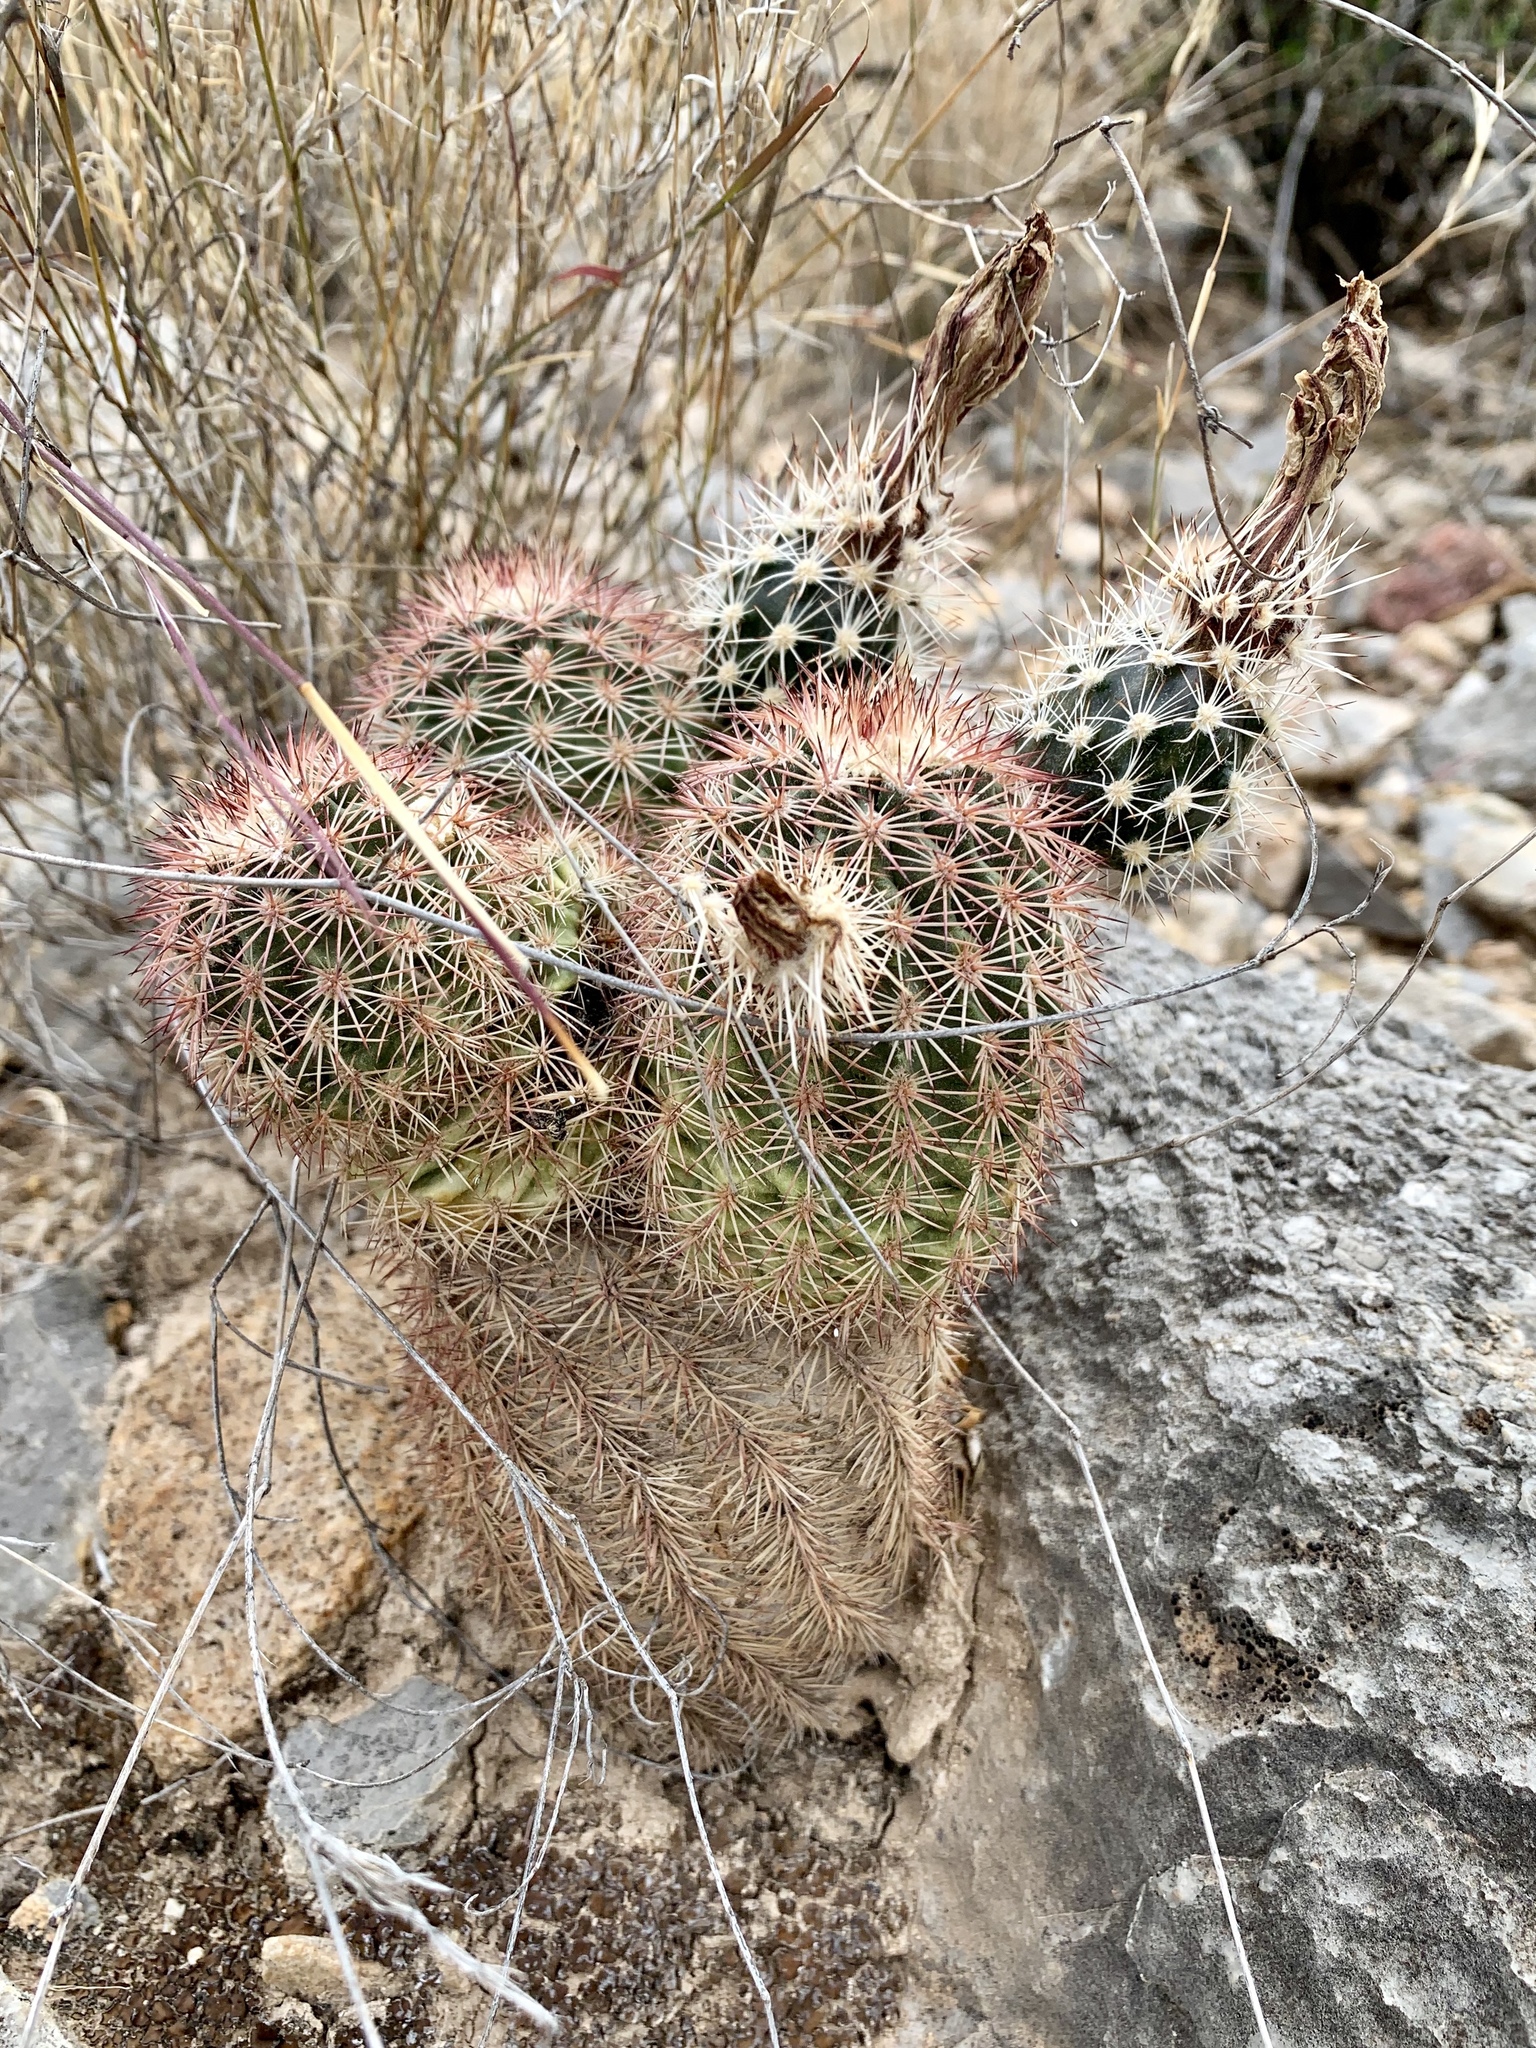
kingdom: Plantae
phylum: Tracheophyta
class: Magnoliopsida
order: Caryophyllales
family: Cactaceae
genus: Echinocereus
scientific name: Echinocereus dasyacanthus
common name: Spiny hedgehog cactus
